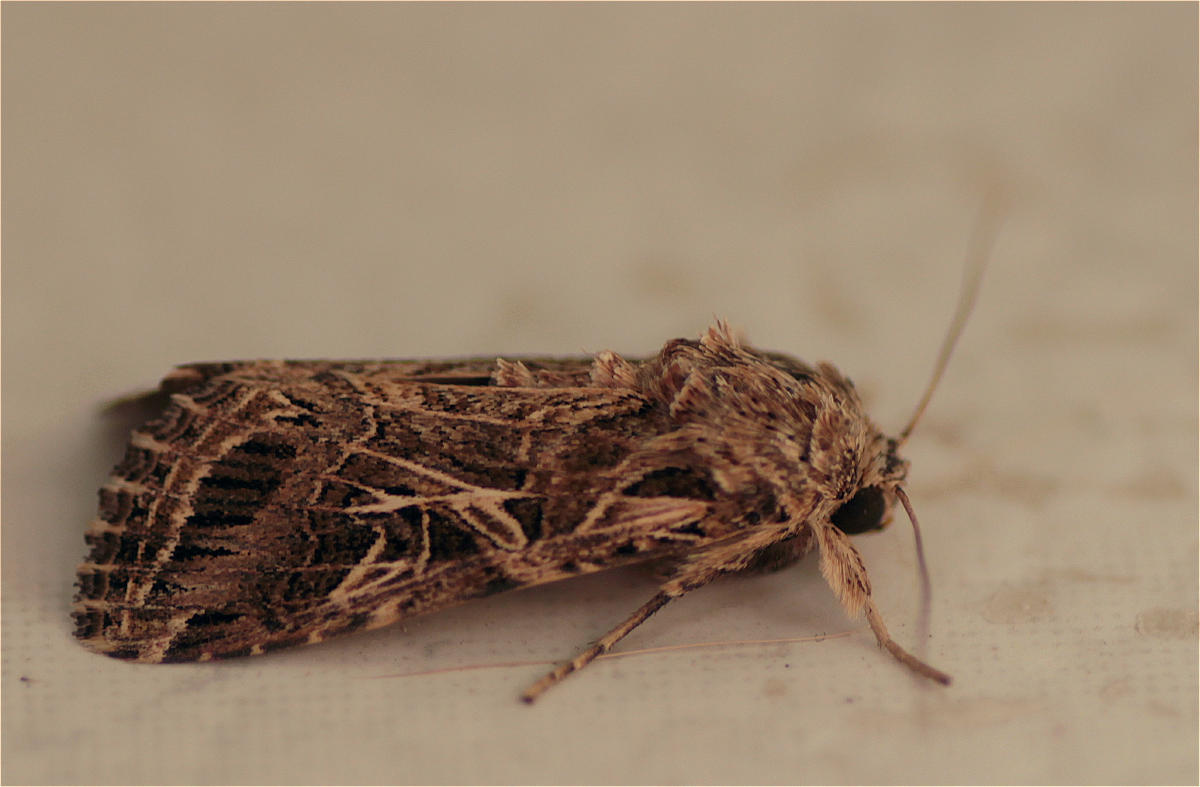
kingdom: Animalia
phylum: Arthropoda
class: Insecta
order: Lepidoptera
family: Noctuidae
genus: Spodoptera
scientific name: Spodoptera littoralis
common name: Egyptian cotton leafworm
